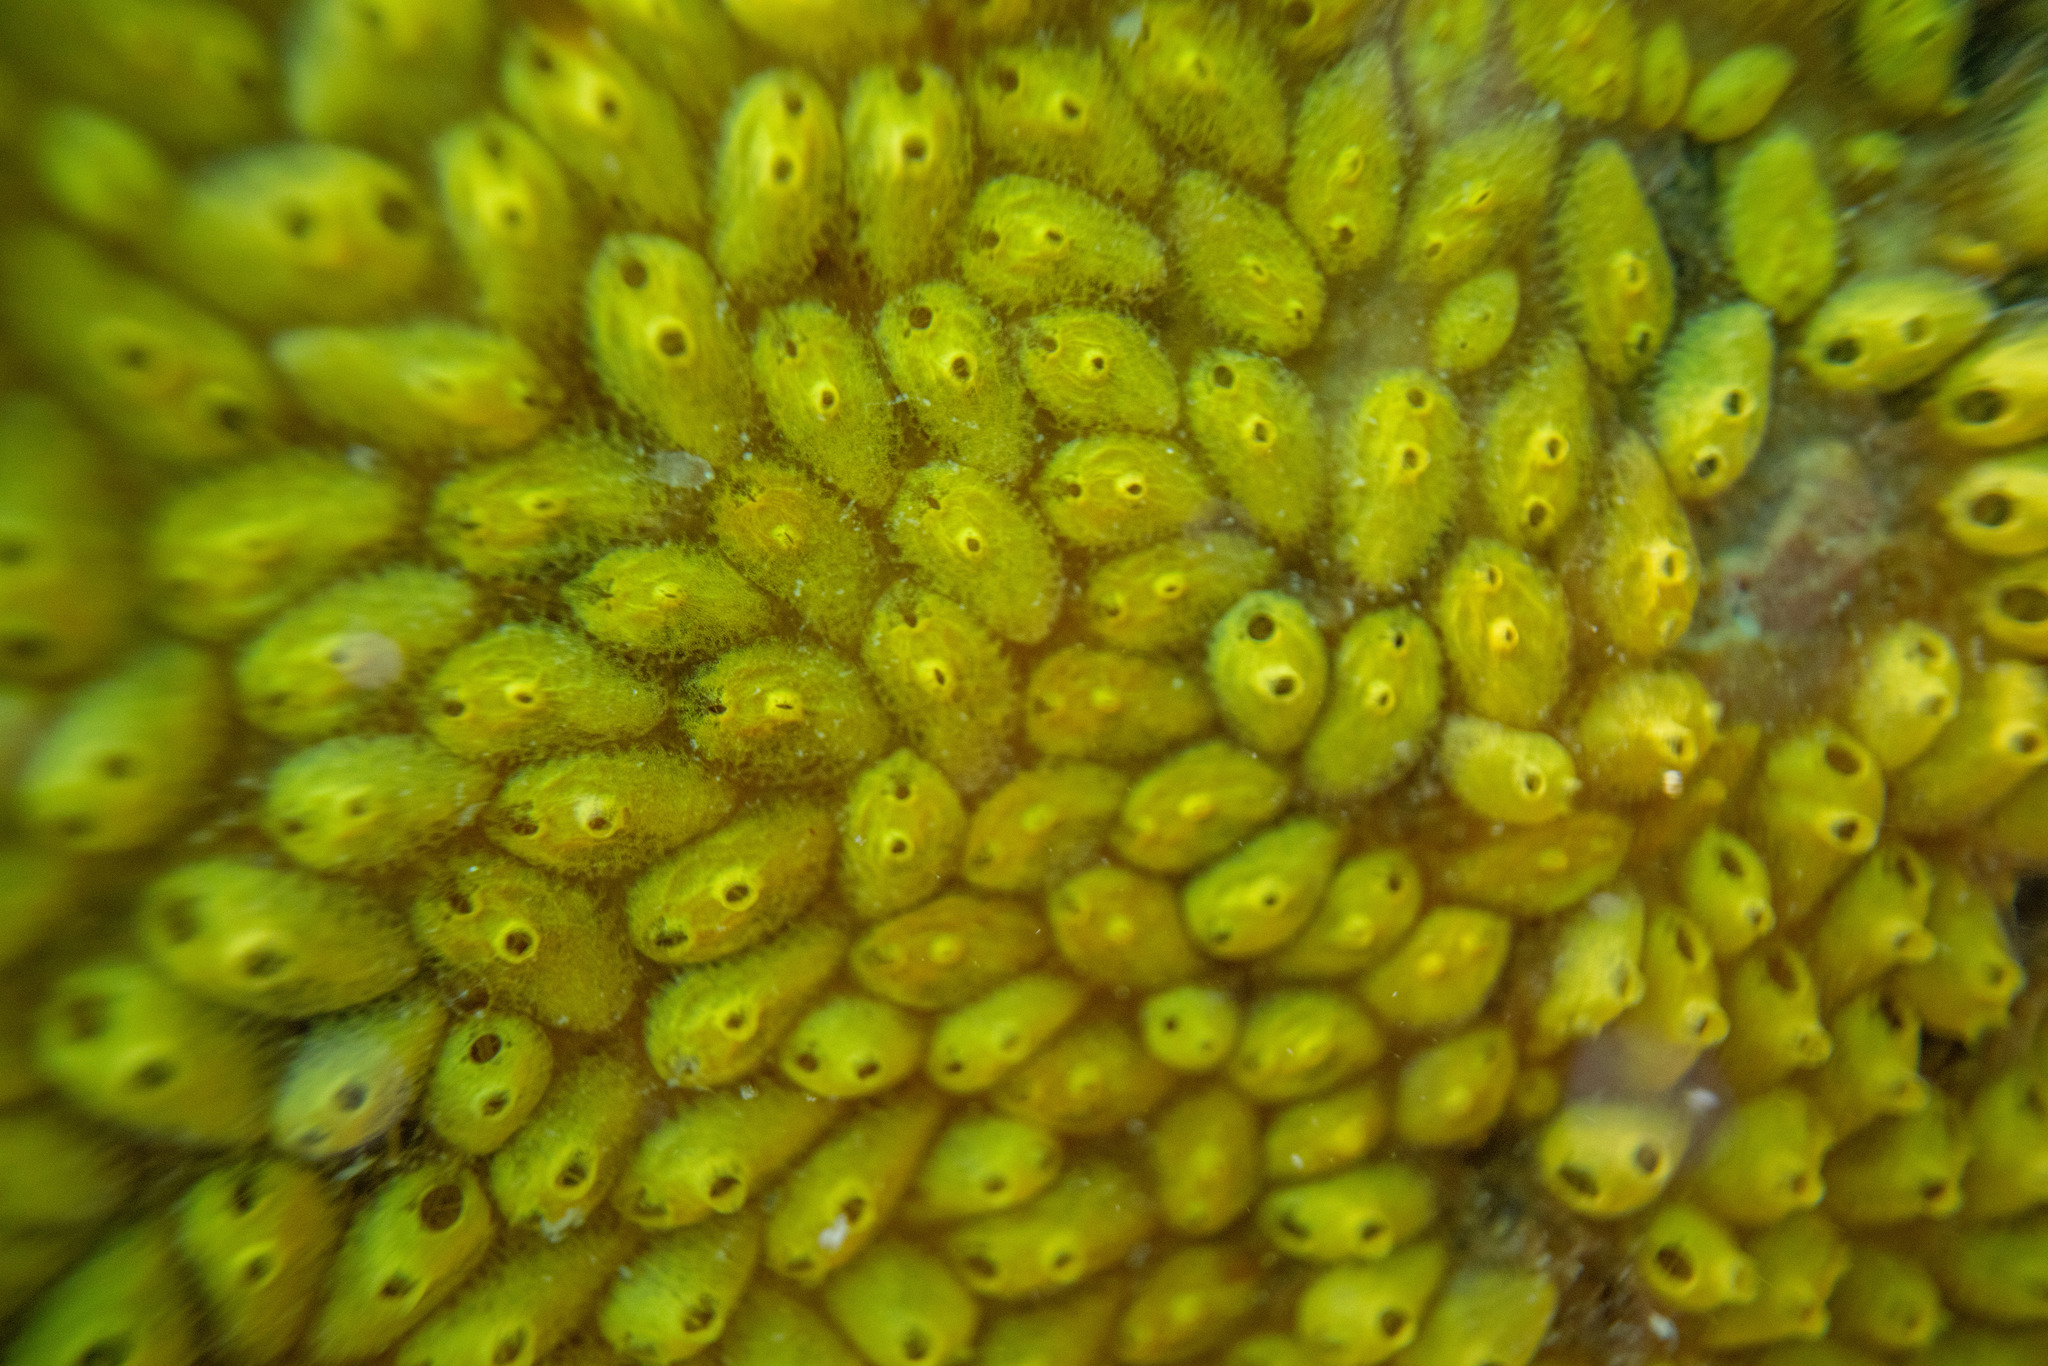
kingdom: Animalia
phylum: Chordata
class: Ascidiacea
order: Stolidobranchia
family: Styelidae
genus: Symplegma
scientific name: Symplegma brakenhielmi
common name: Ascidian
